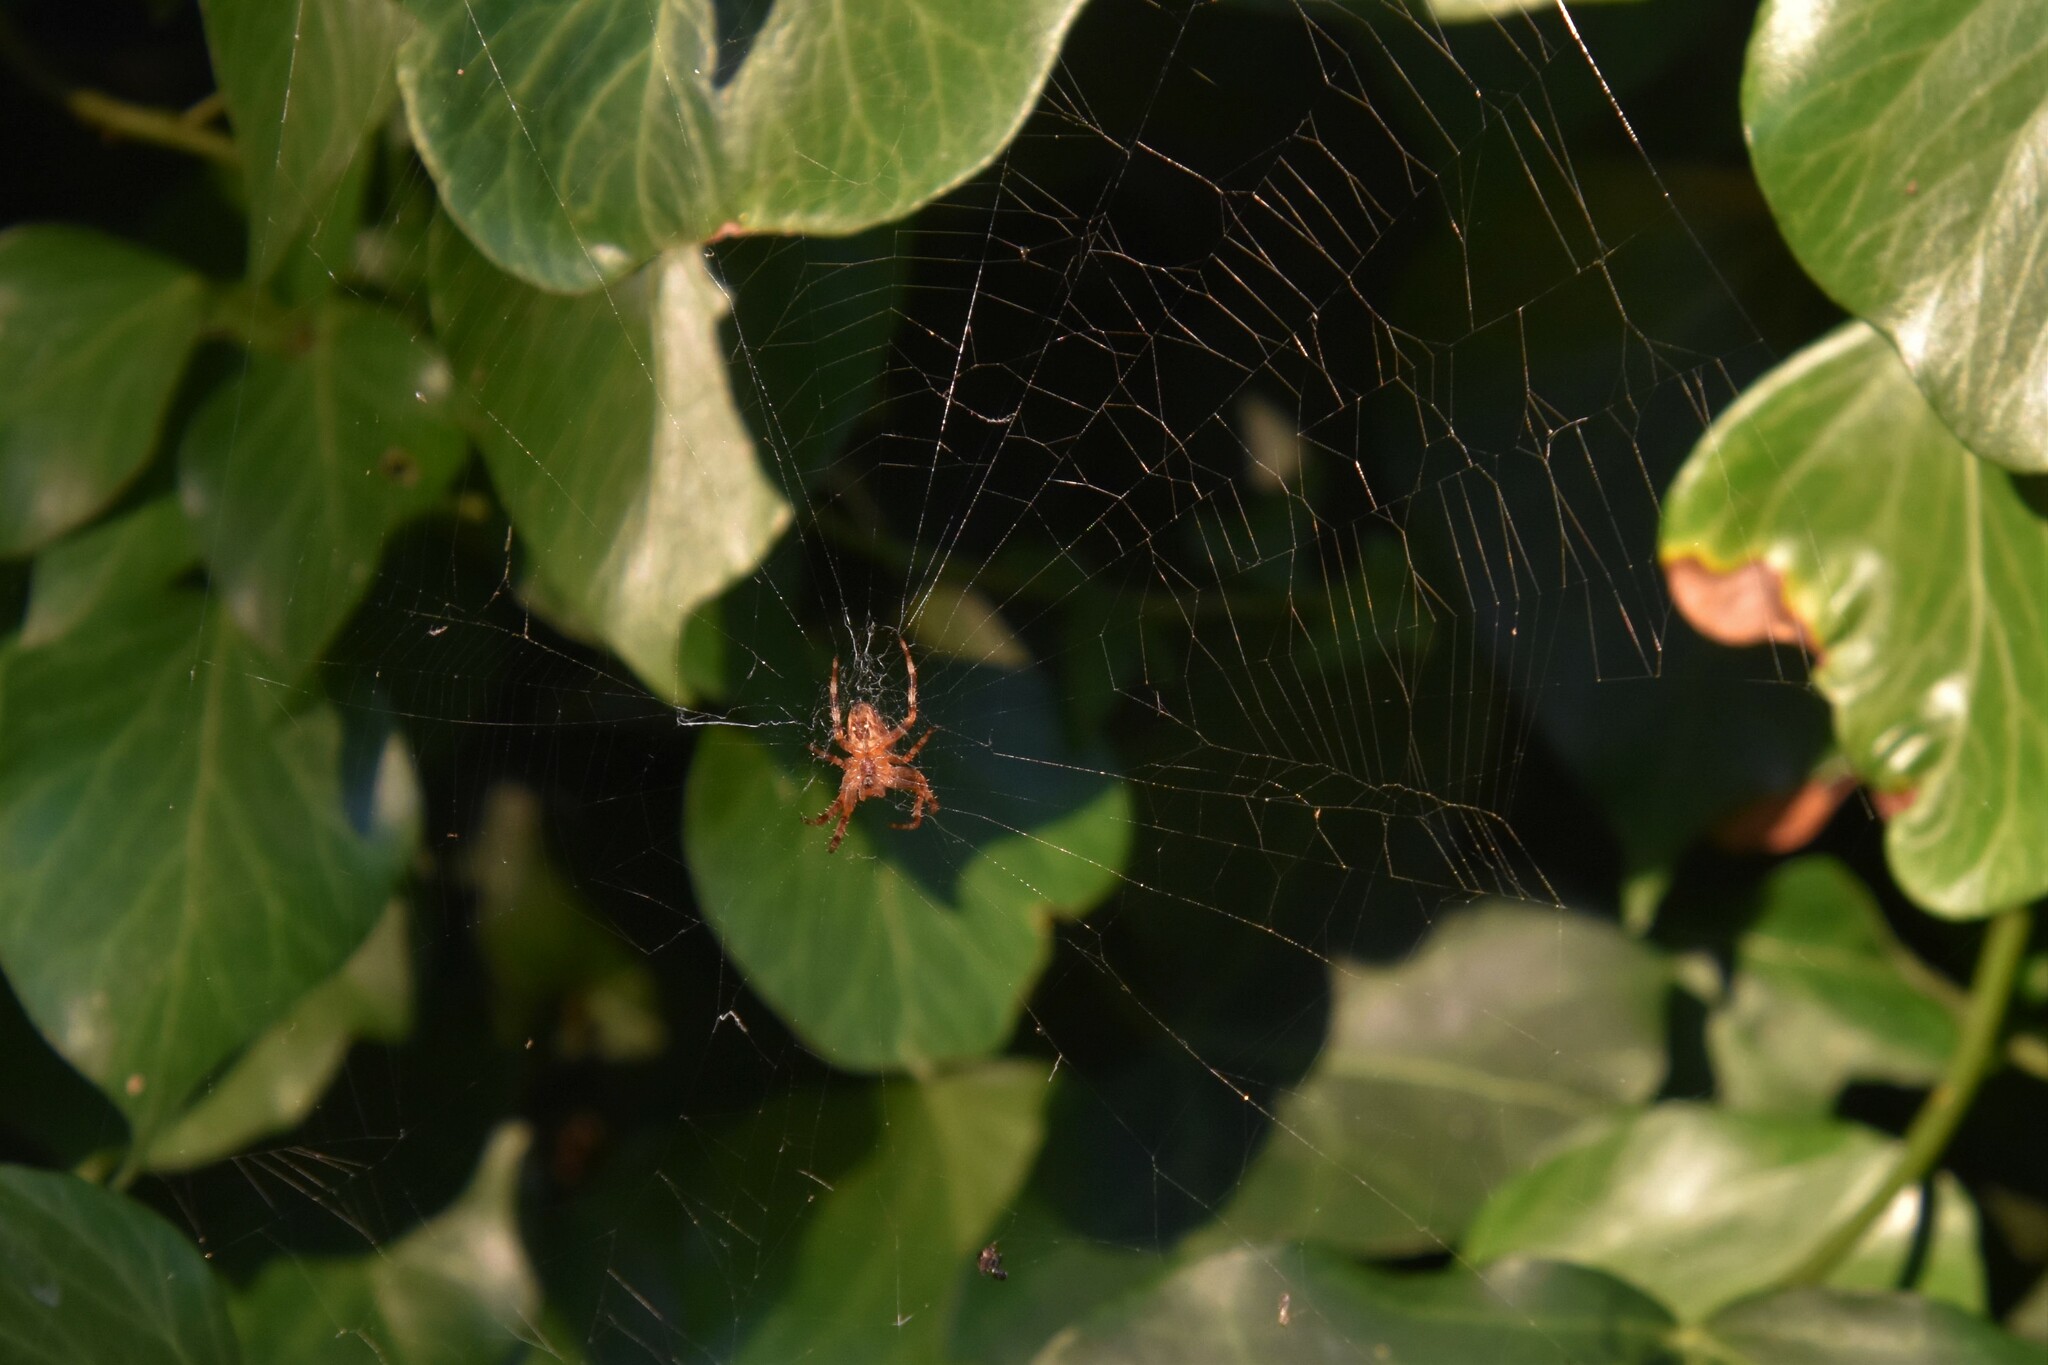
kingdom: Animalia
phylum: Arthropoda
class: Arachnida
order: Araneae
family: Araneidae
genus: Araneus
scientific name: Araneus diadematus
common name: Cross orbweaver
